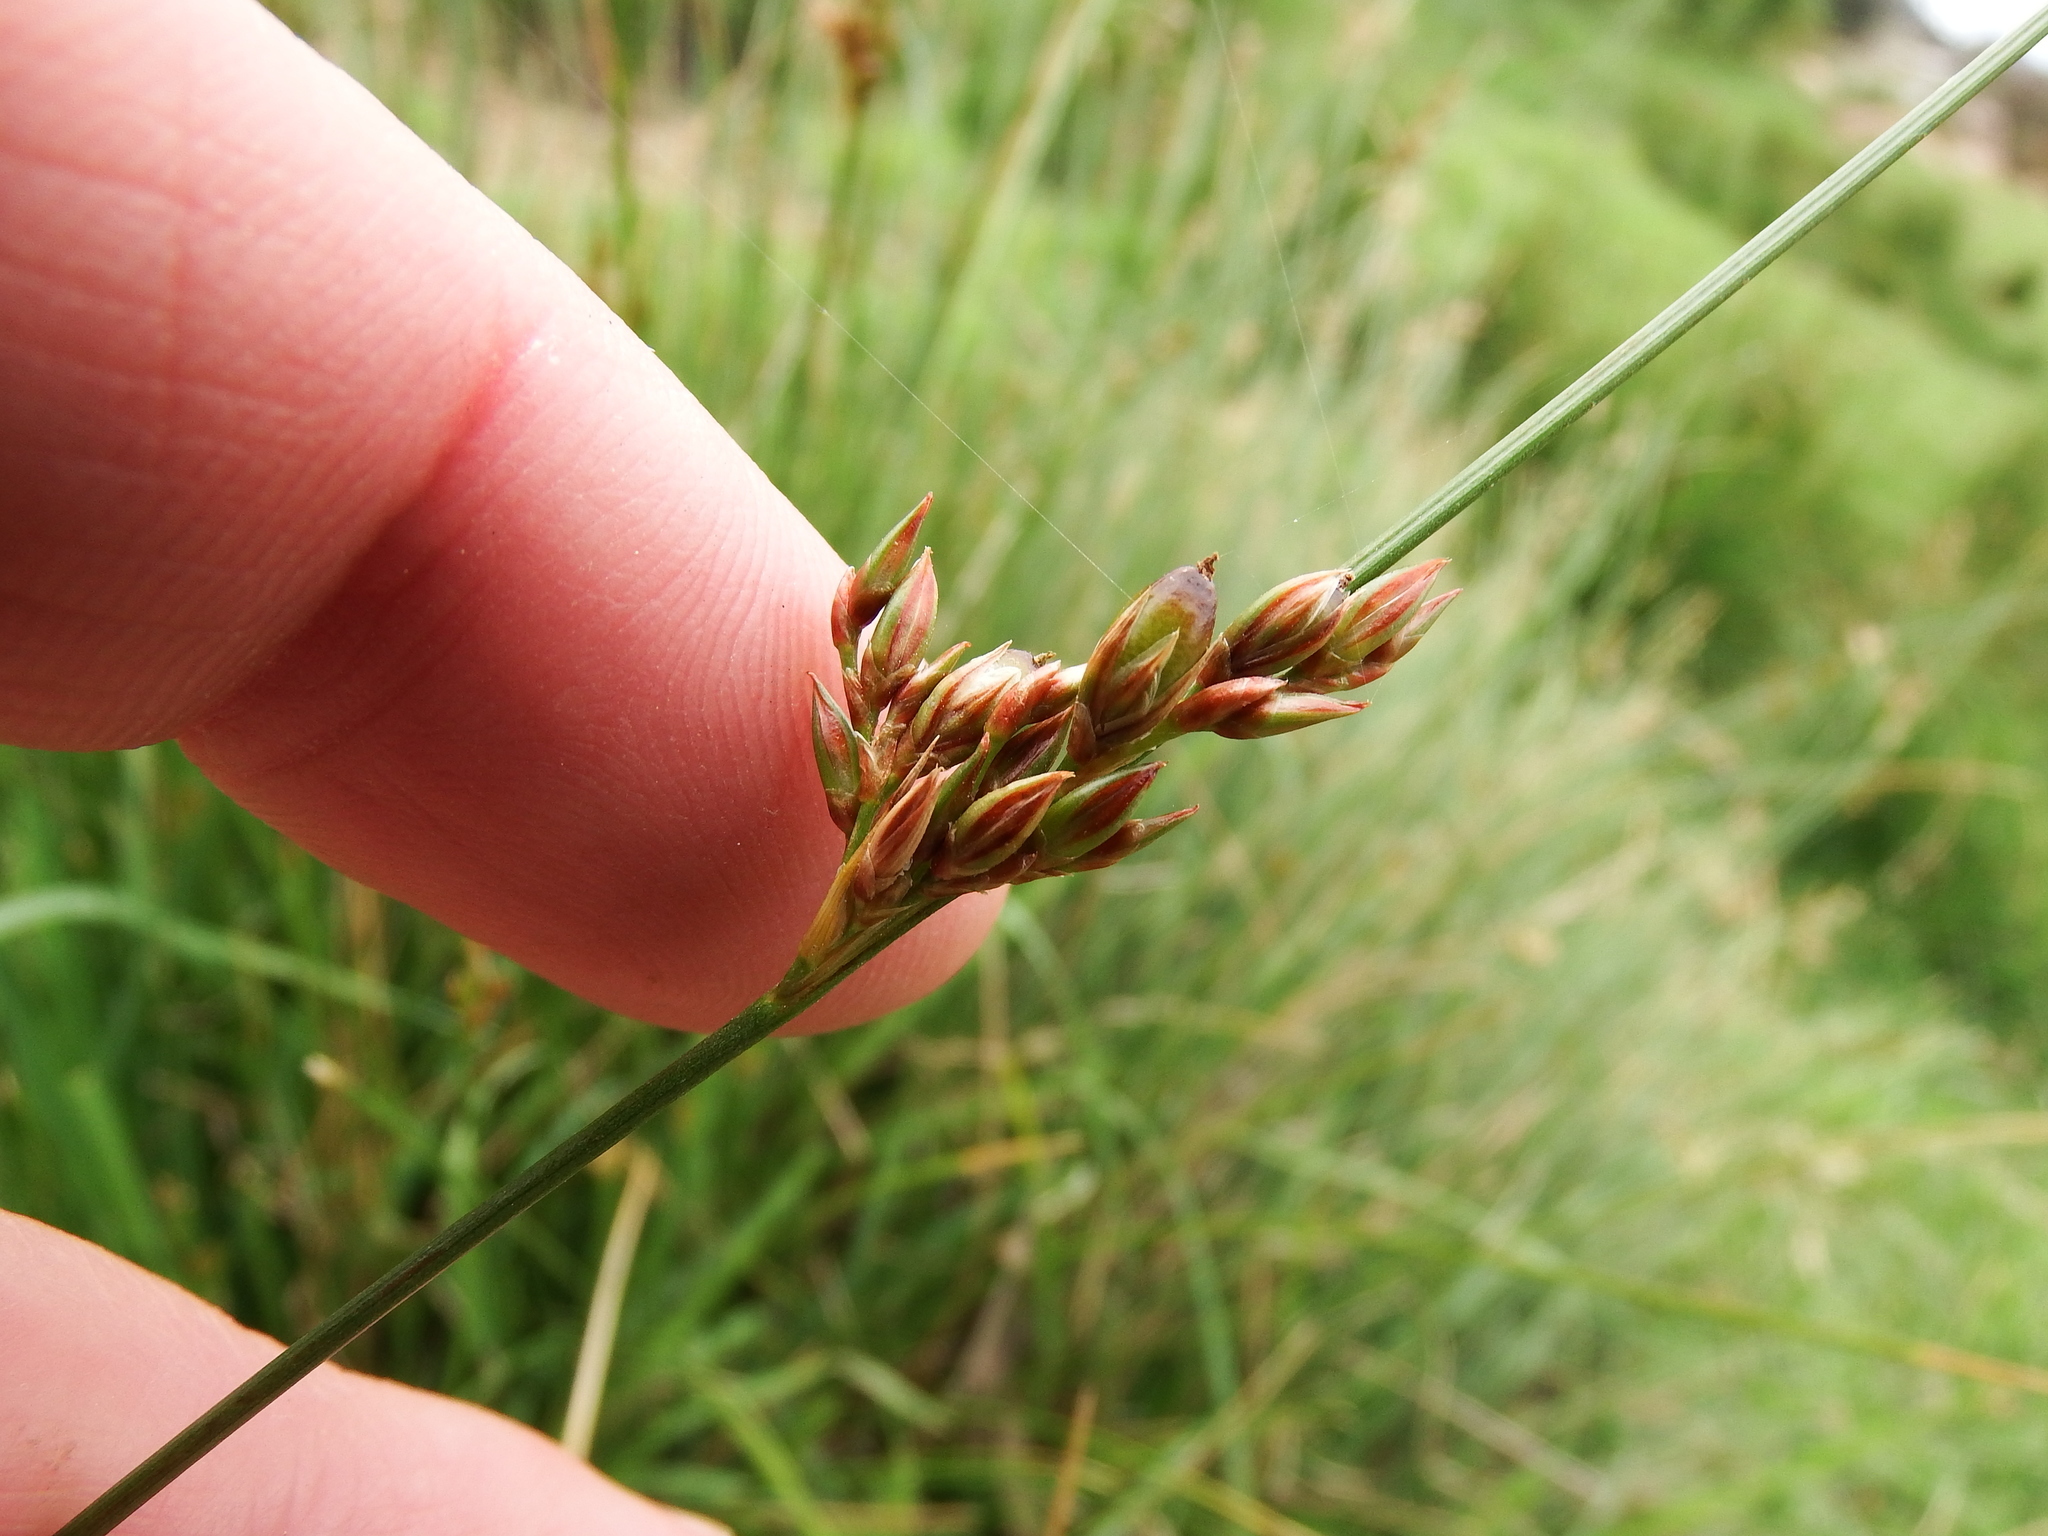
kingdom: Plantae
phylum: Tracheophyta
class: Liliopsida
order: Poales
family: Juncaceae
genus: Juncus
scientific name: Juncus imbricatus
